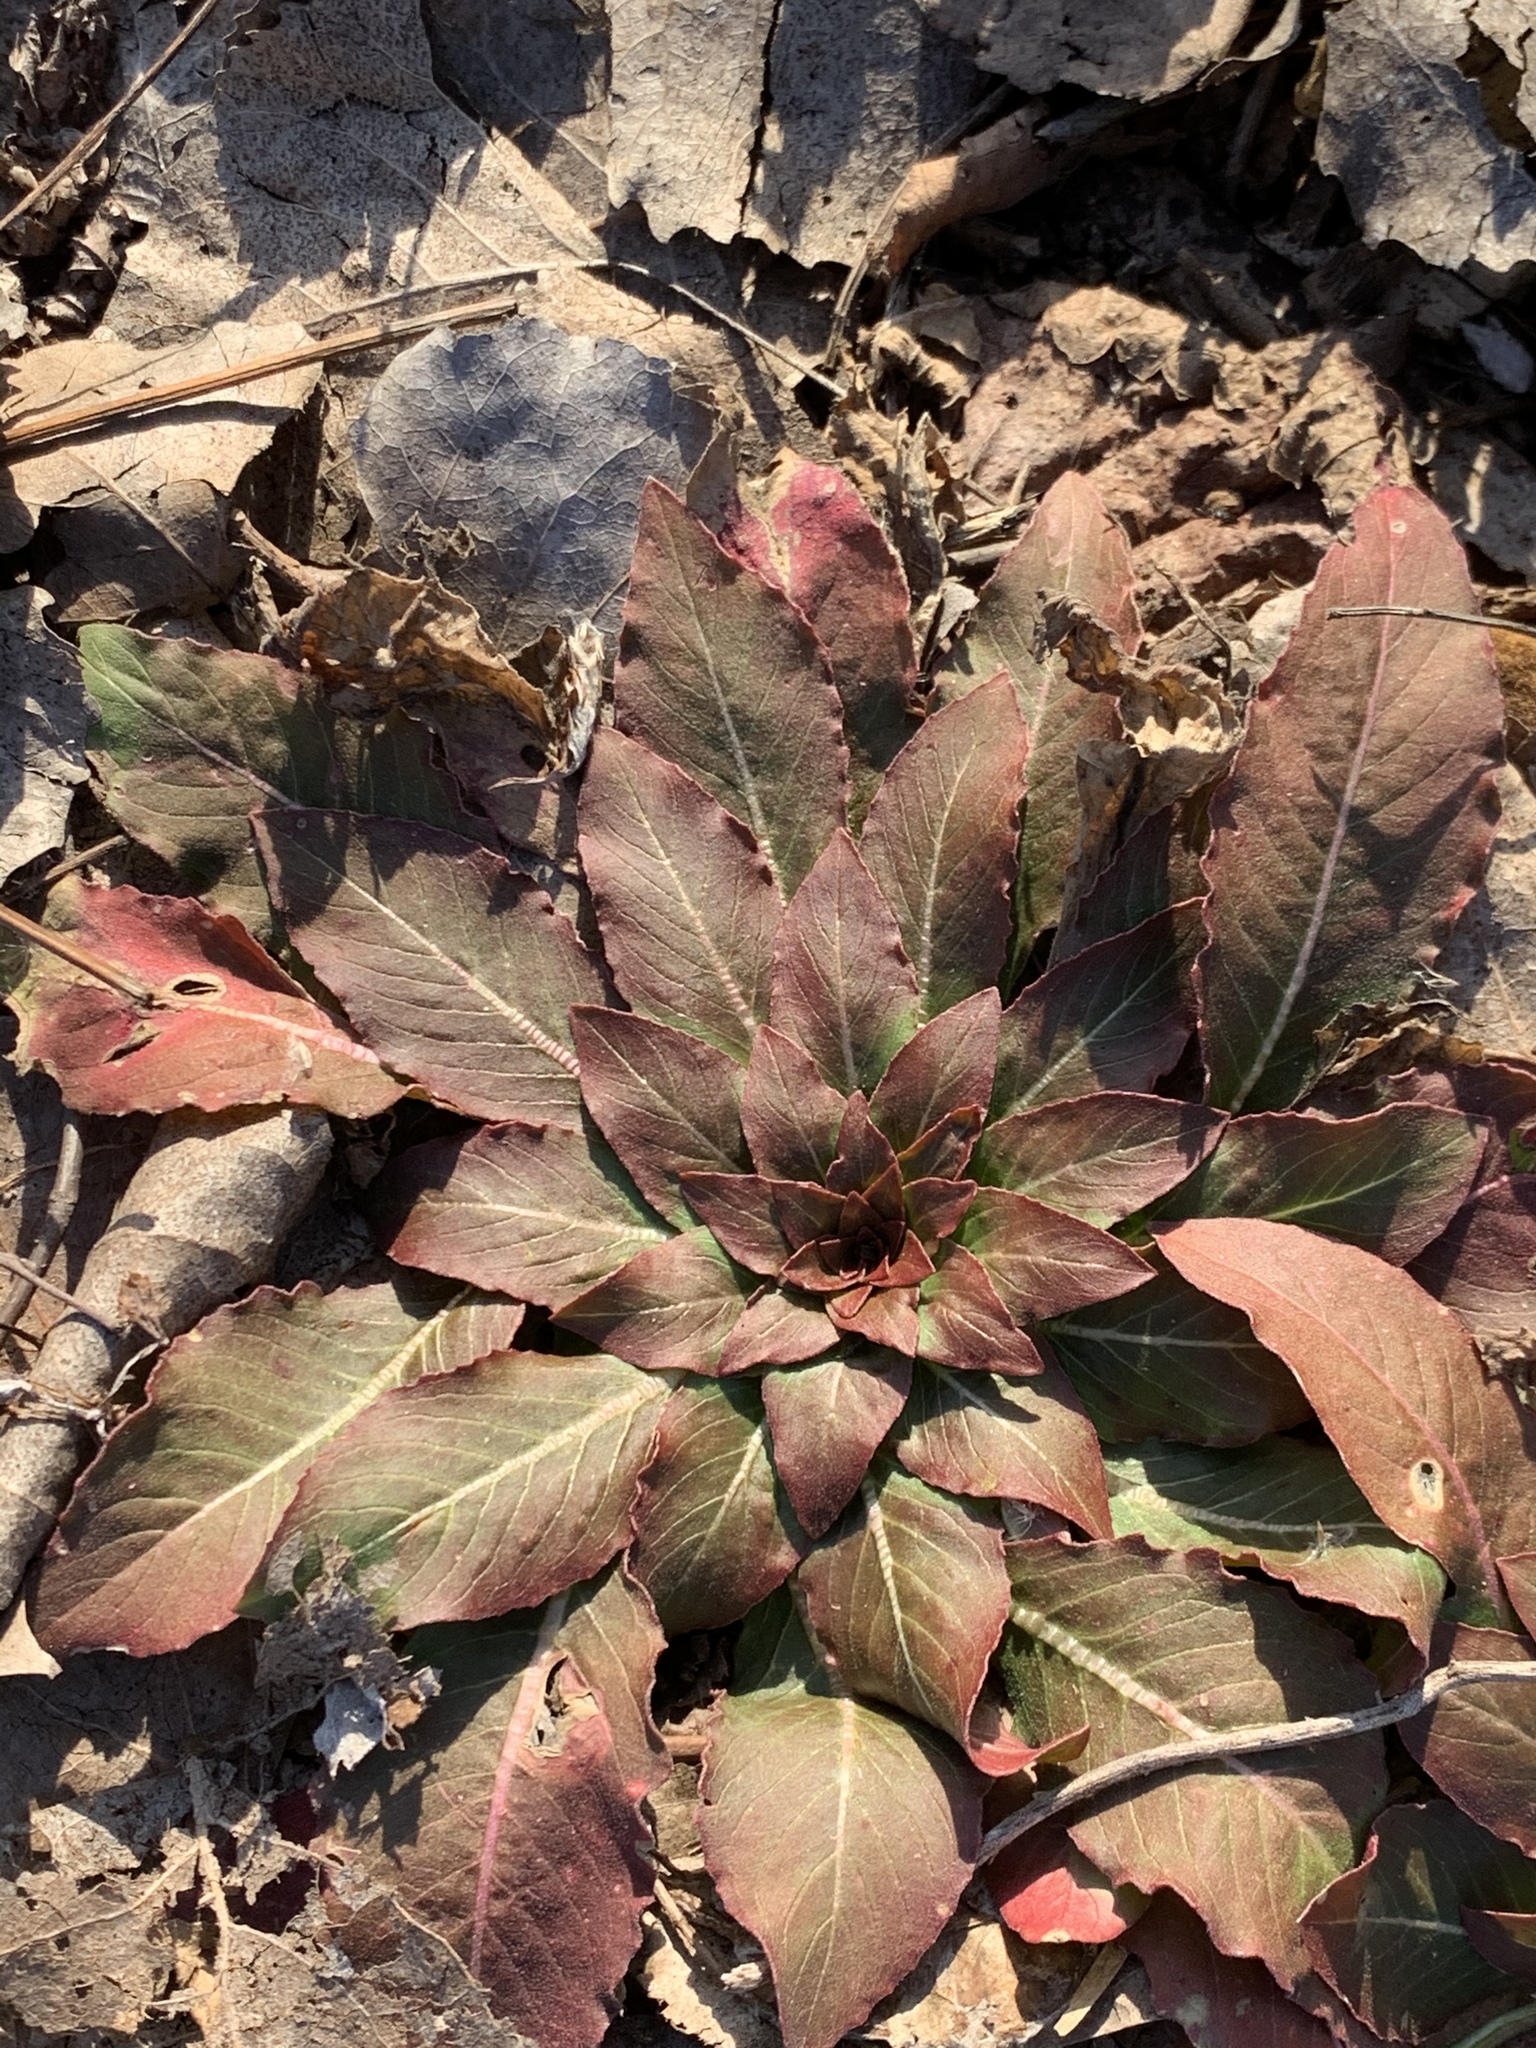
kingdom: Plantae
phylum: Tracheophyta
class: Magnoliopsida
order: Myrtales
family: Onagraceae
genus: Oenothera
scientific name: Oenothera biennis
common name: Common evening-primrose
